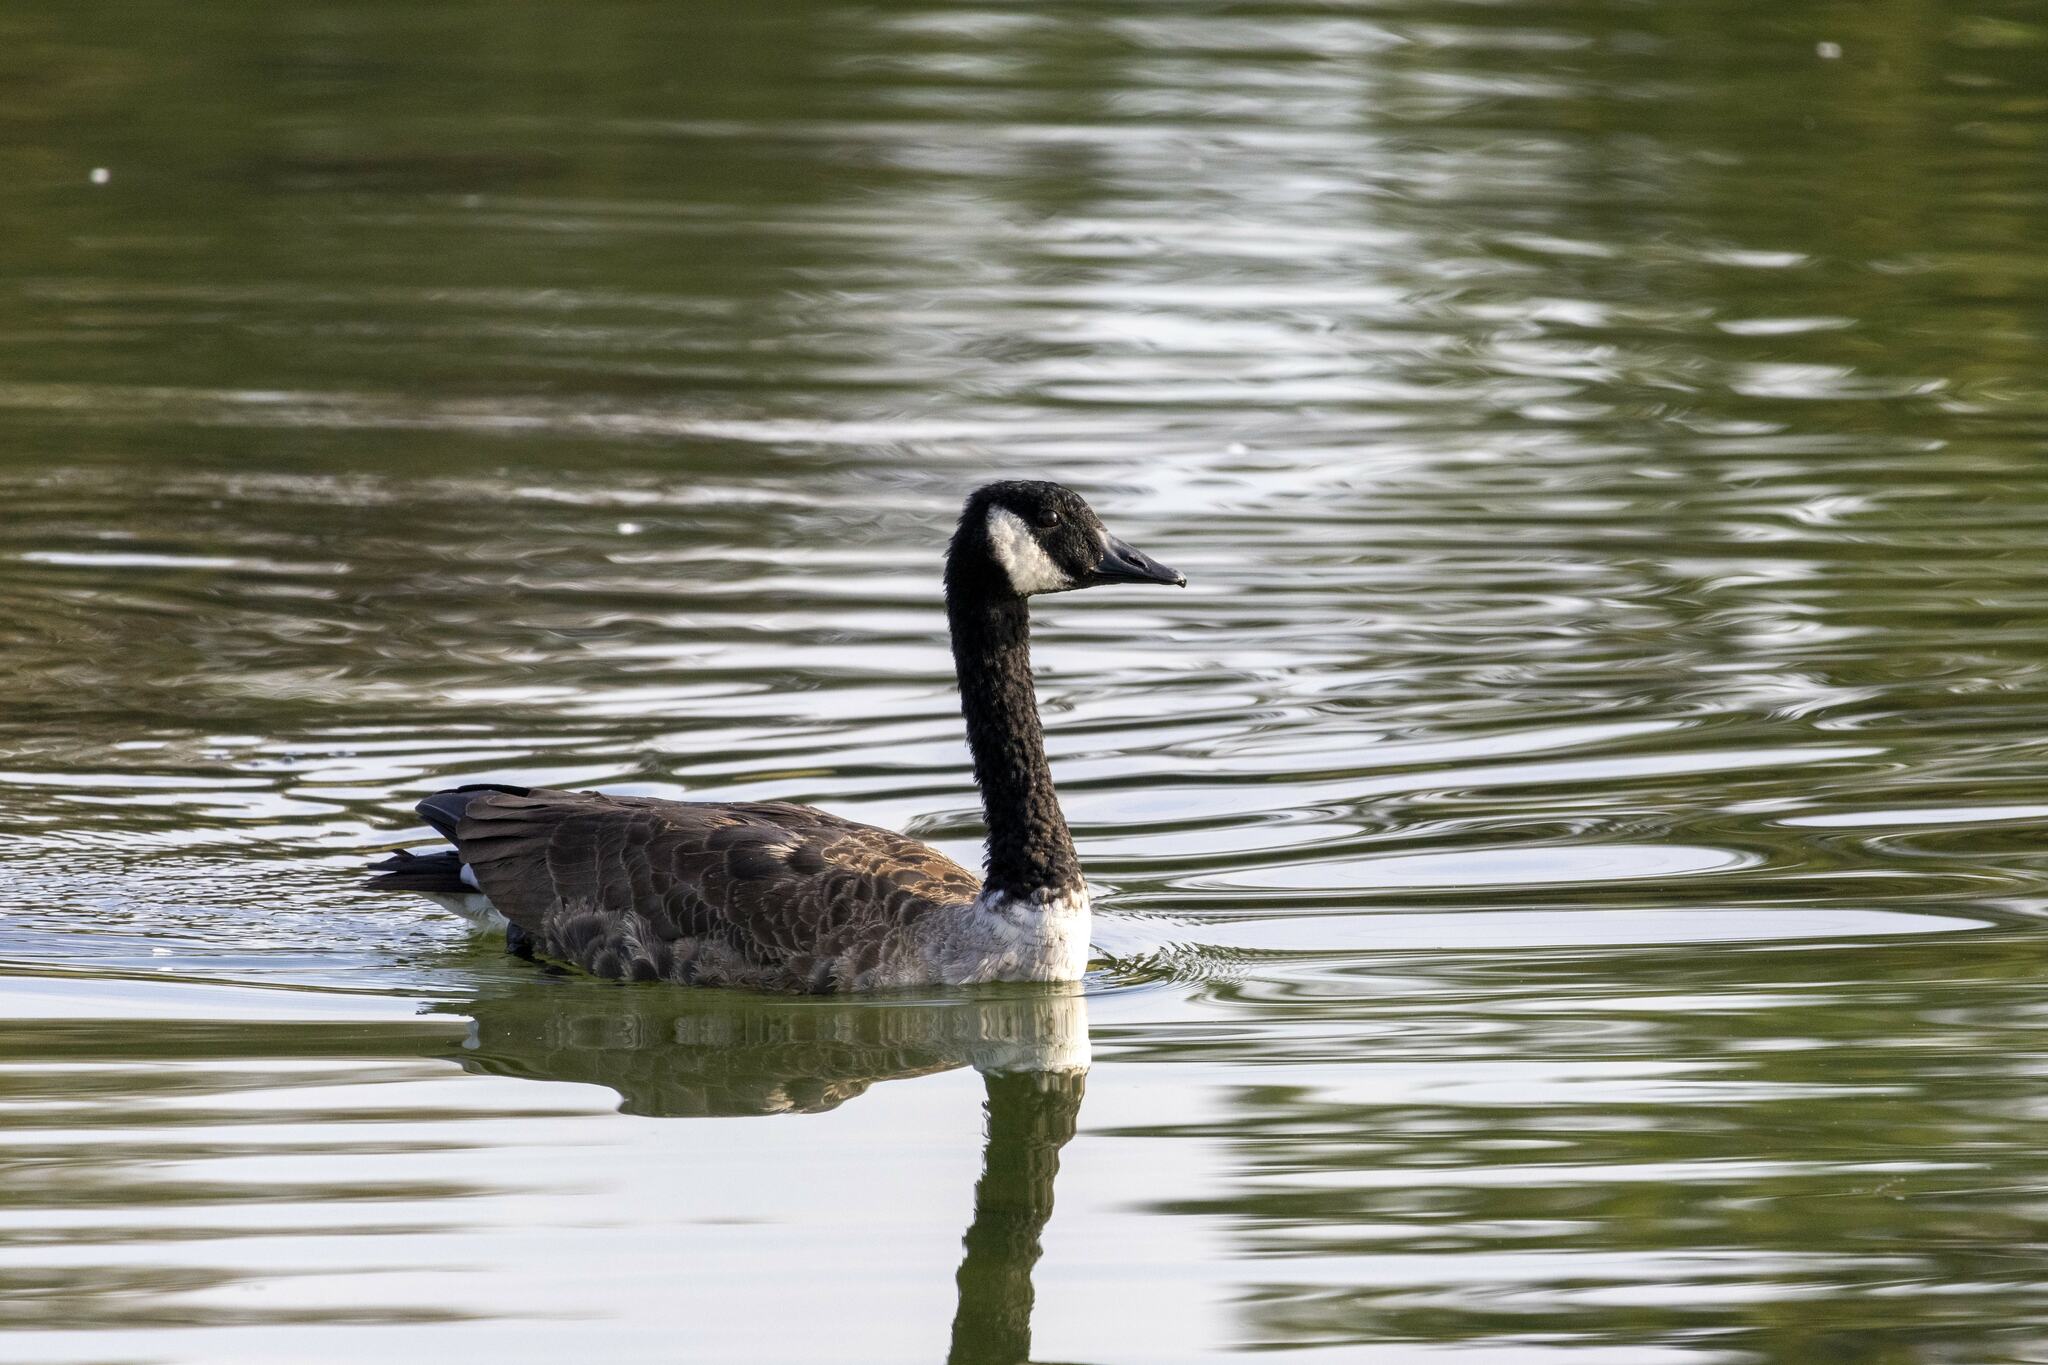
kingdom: Animalia
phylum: Chordata
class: Aves
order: Anseriformes
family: Anatidae
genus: Branta
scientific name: Branta canadensis
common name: Canada goose
